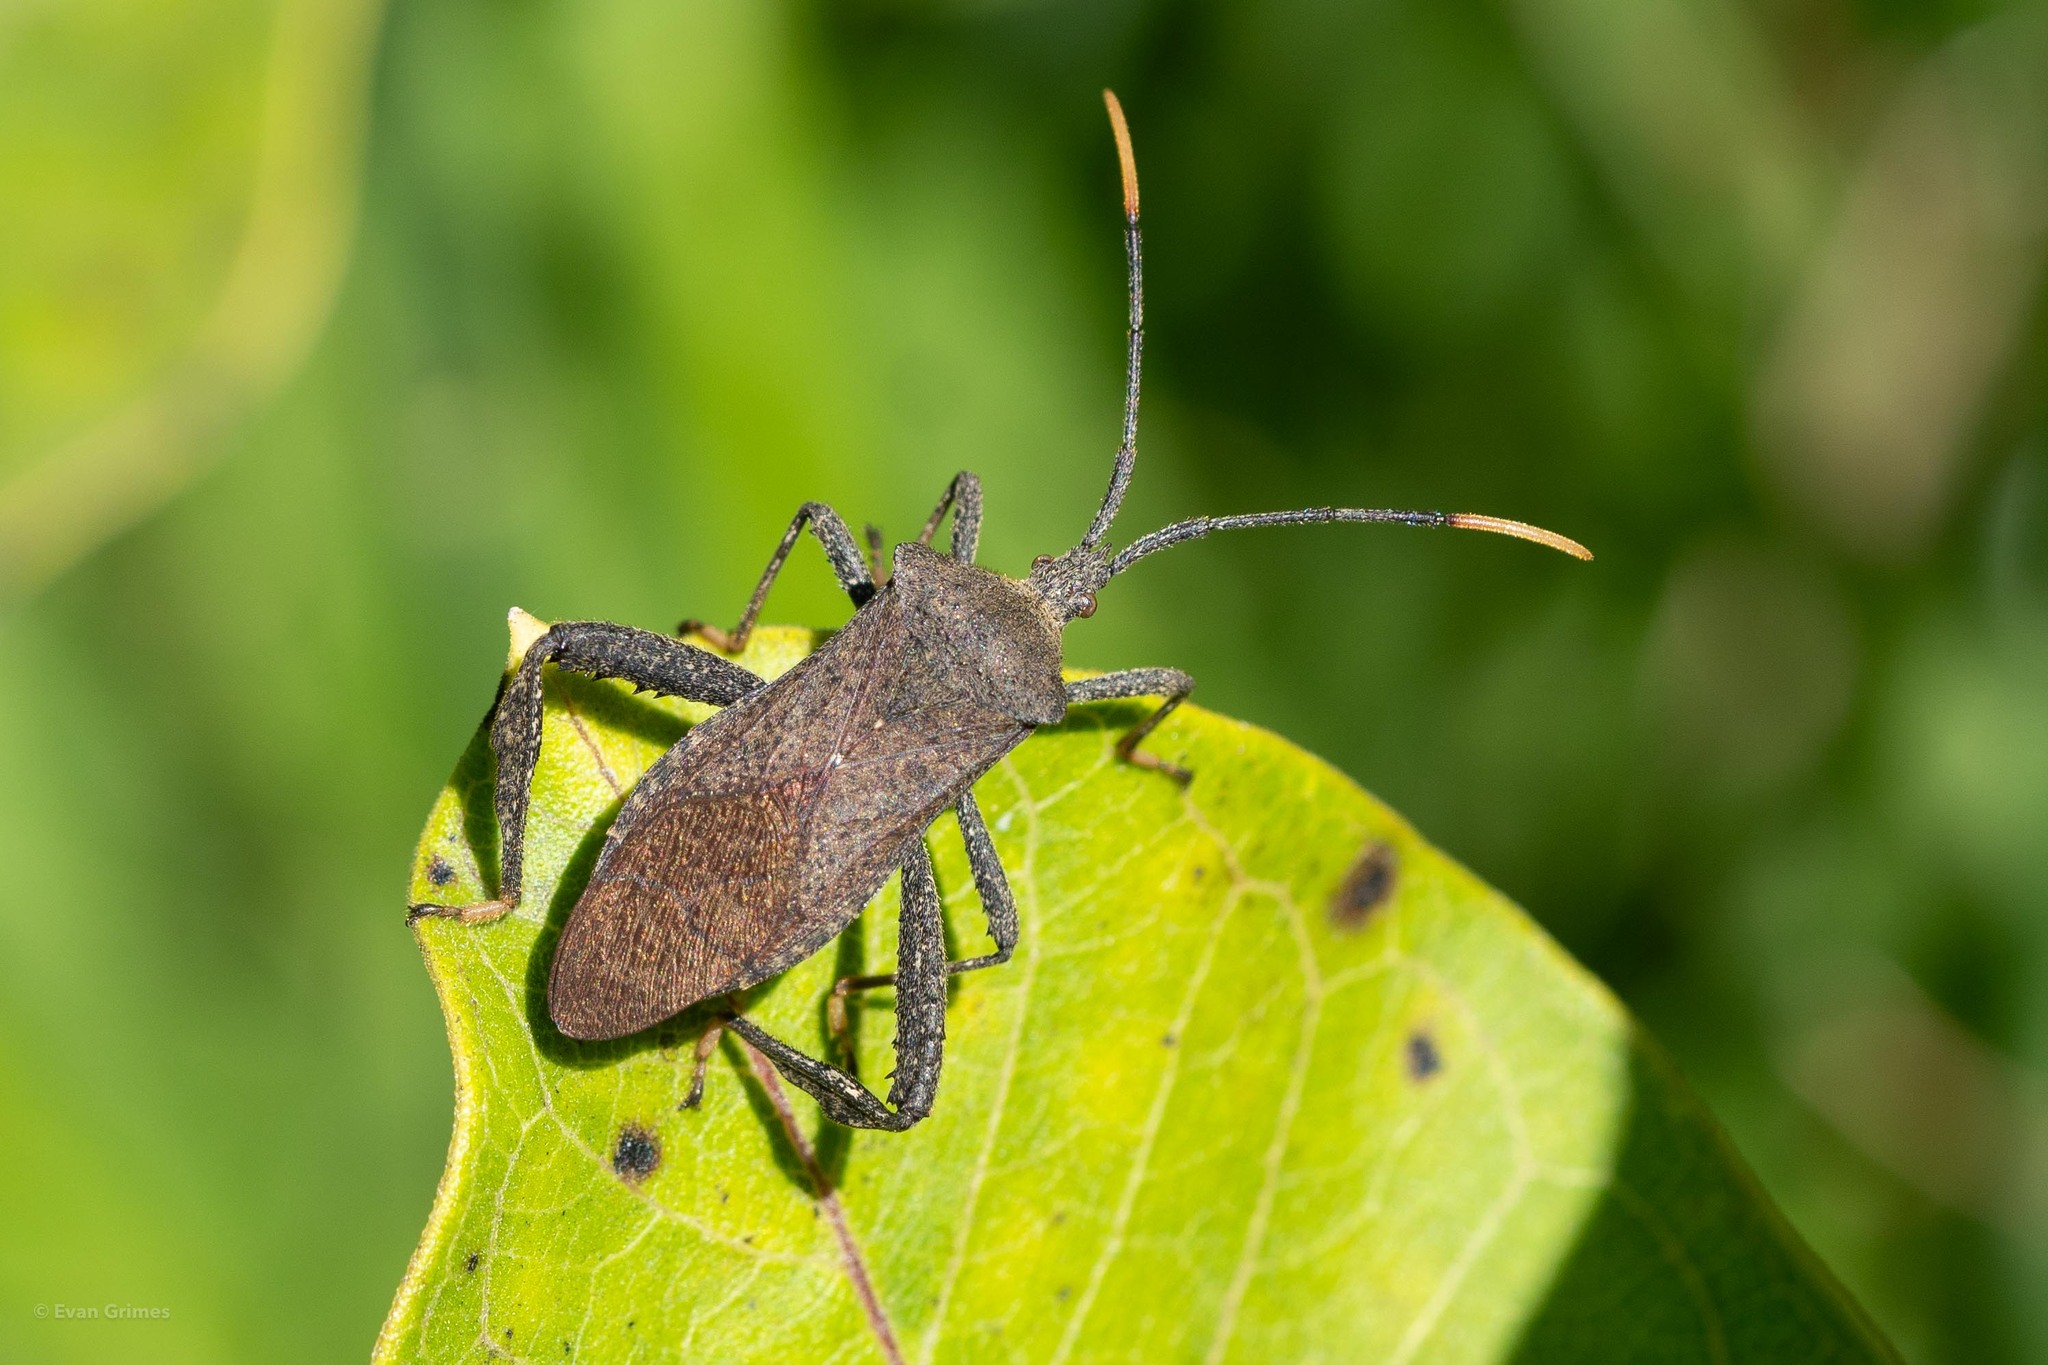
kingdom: Animalia
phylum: Arthropoda
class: Insecta
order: Hemiptera
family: Coreidae
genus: Acanthocephala
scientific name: Acanthocephala terminalis
